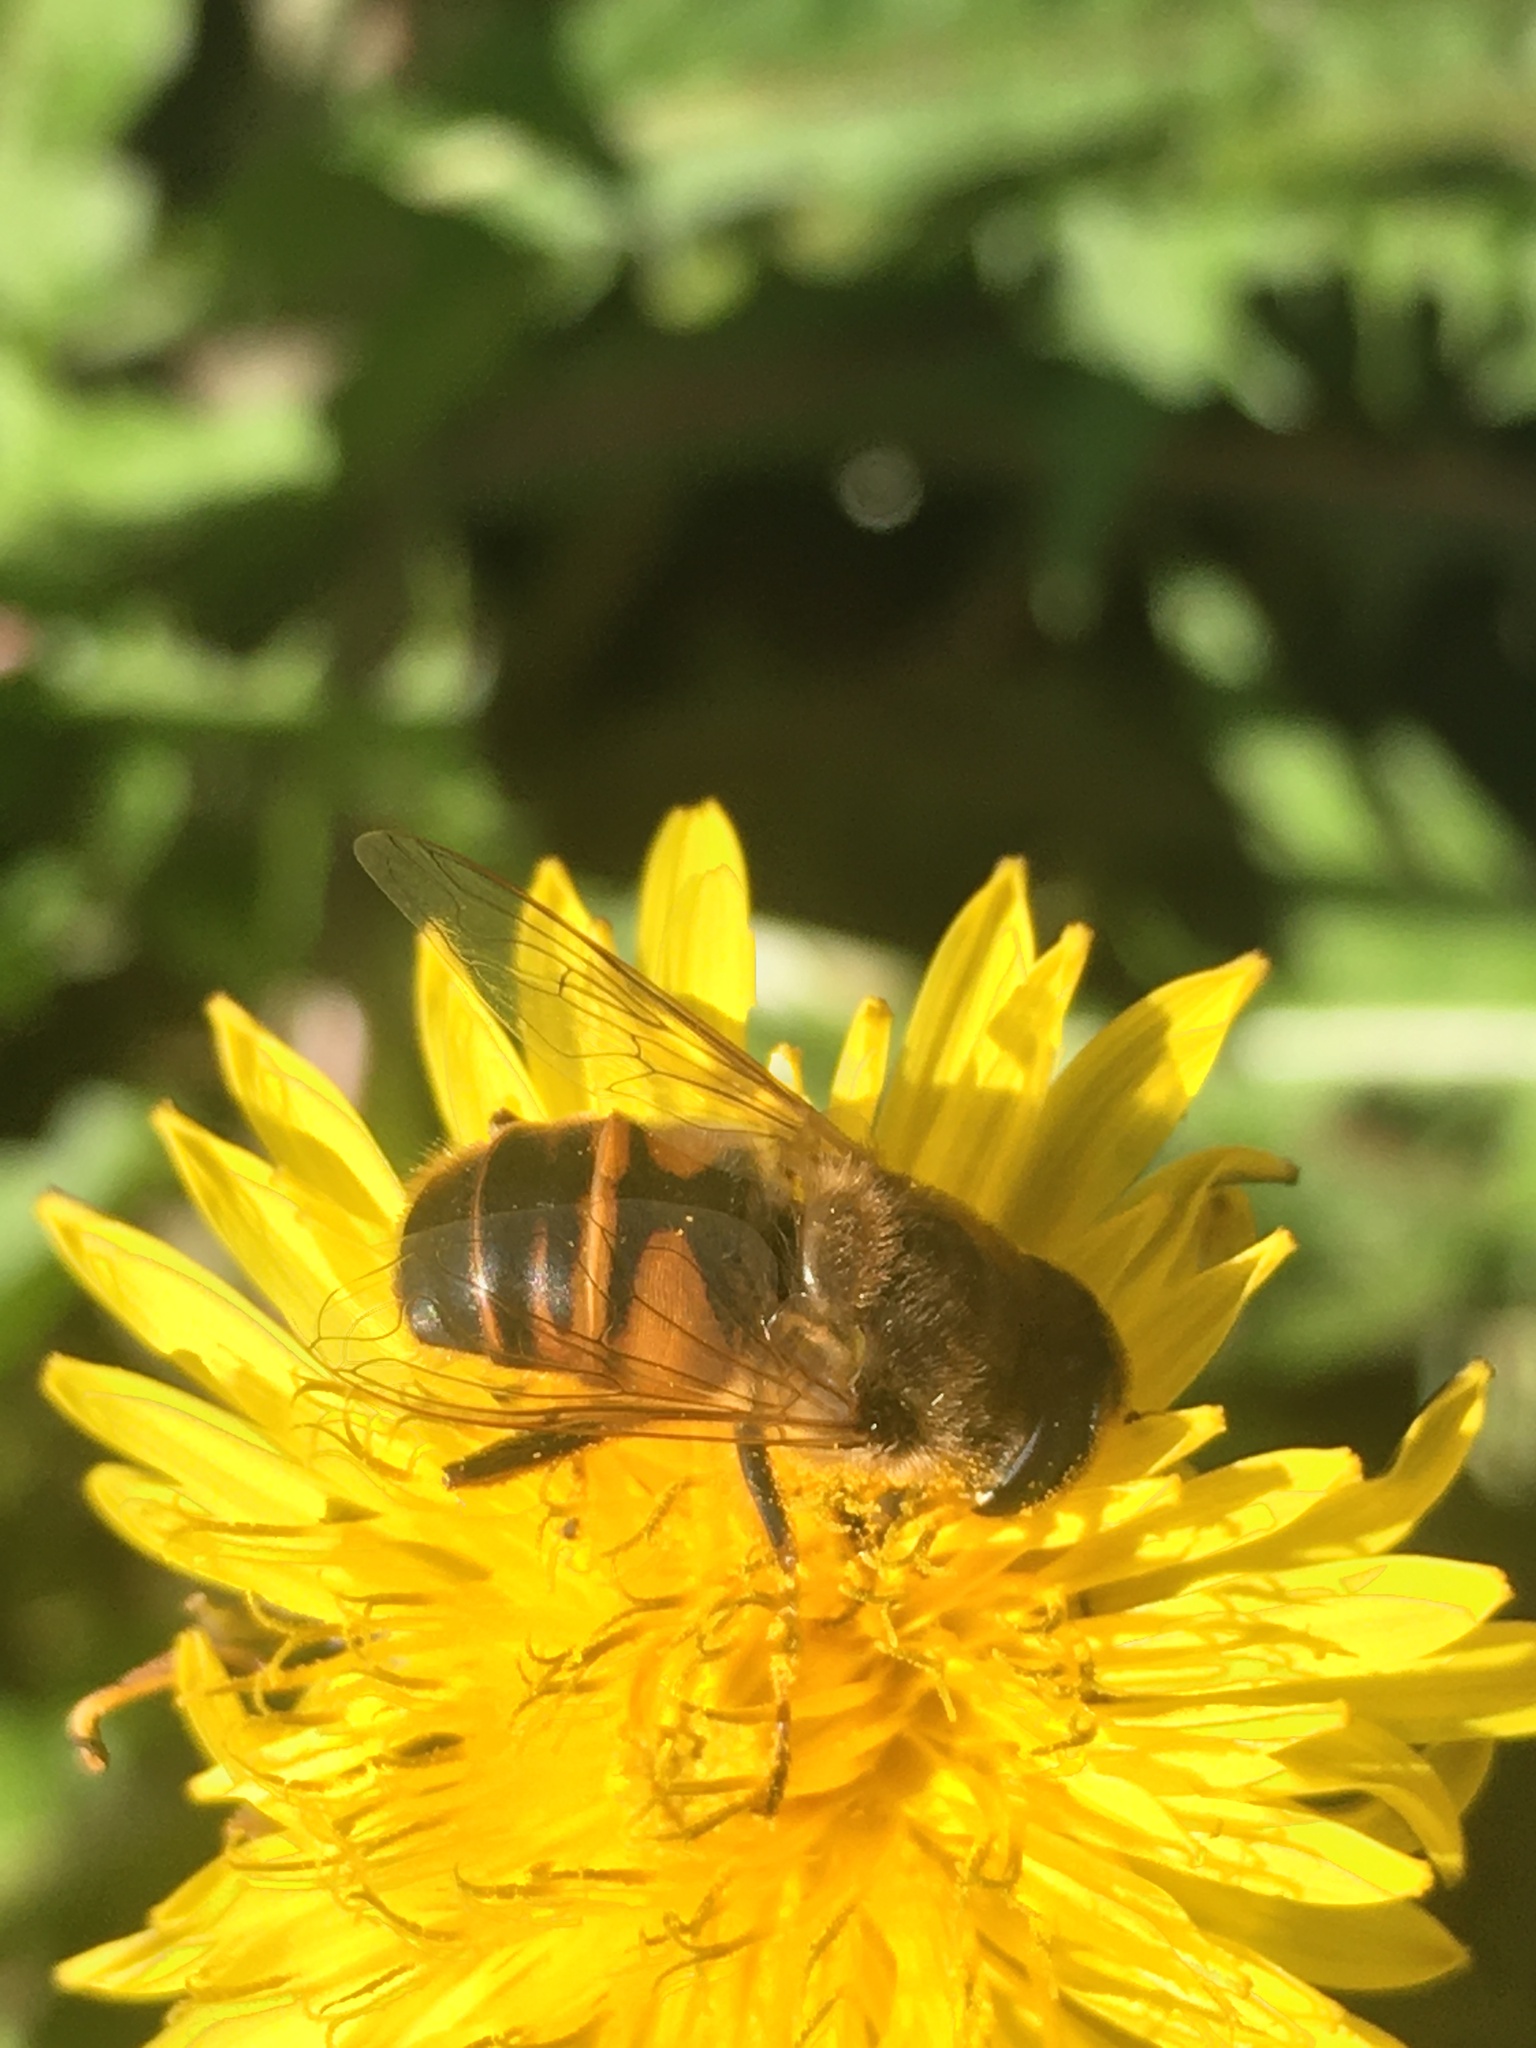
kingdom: Animalia
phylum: Arthropoda
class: Insecta
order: Diptera
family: Syrphidae
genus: Eristalis
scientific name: Eristalis tenax
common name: Drone fly
